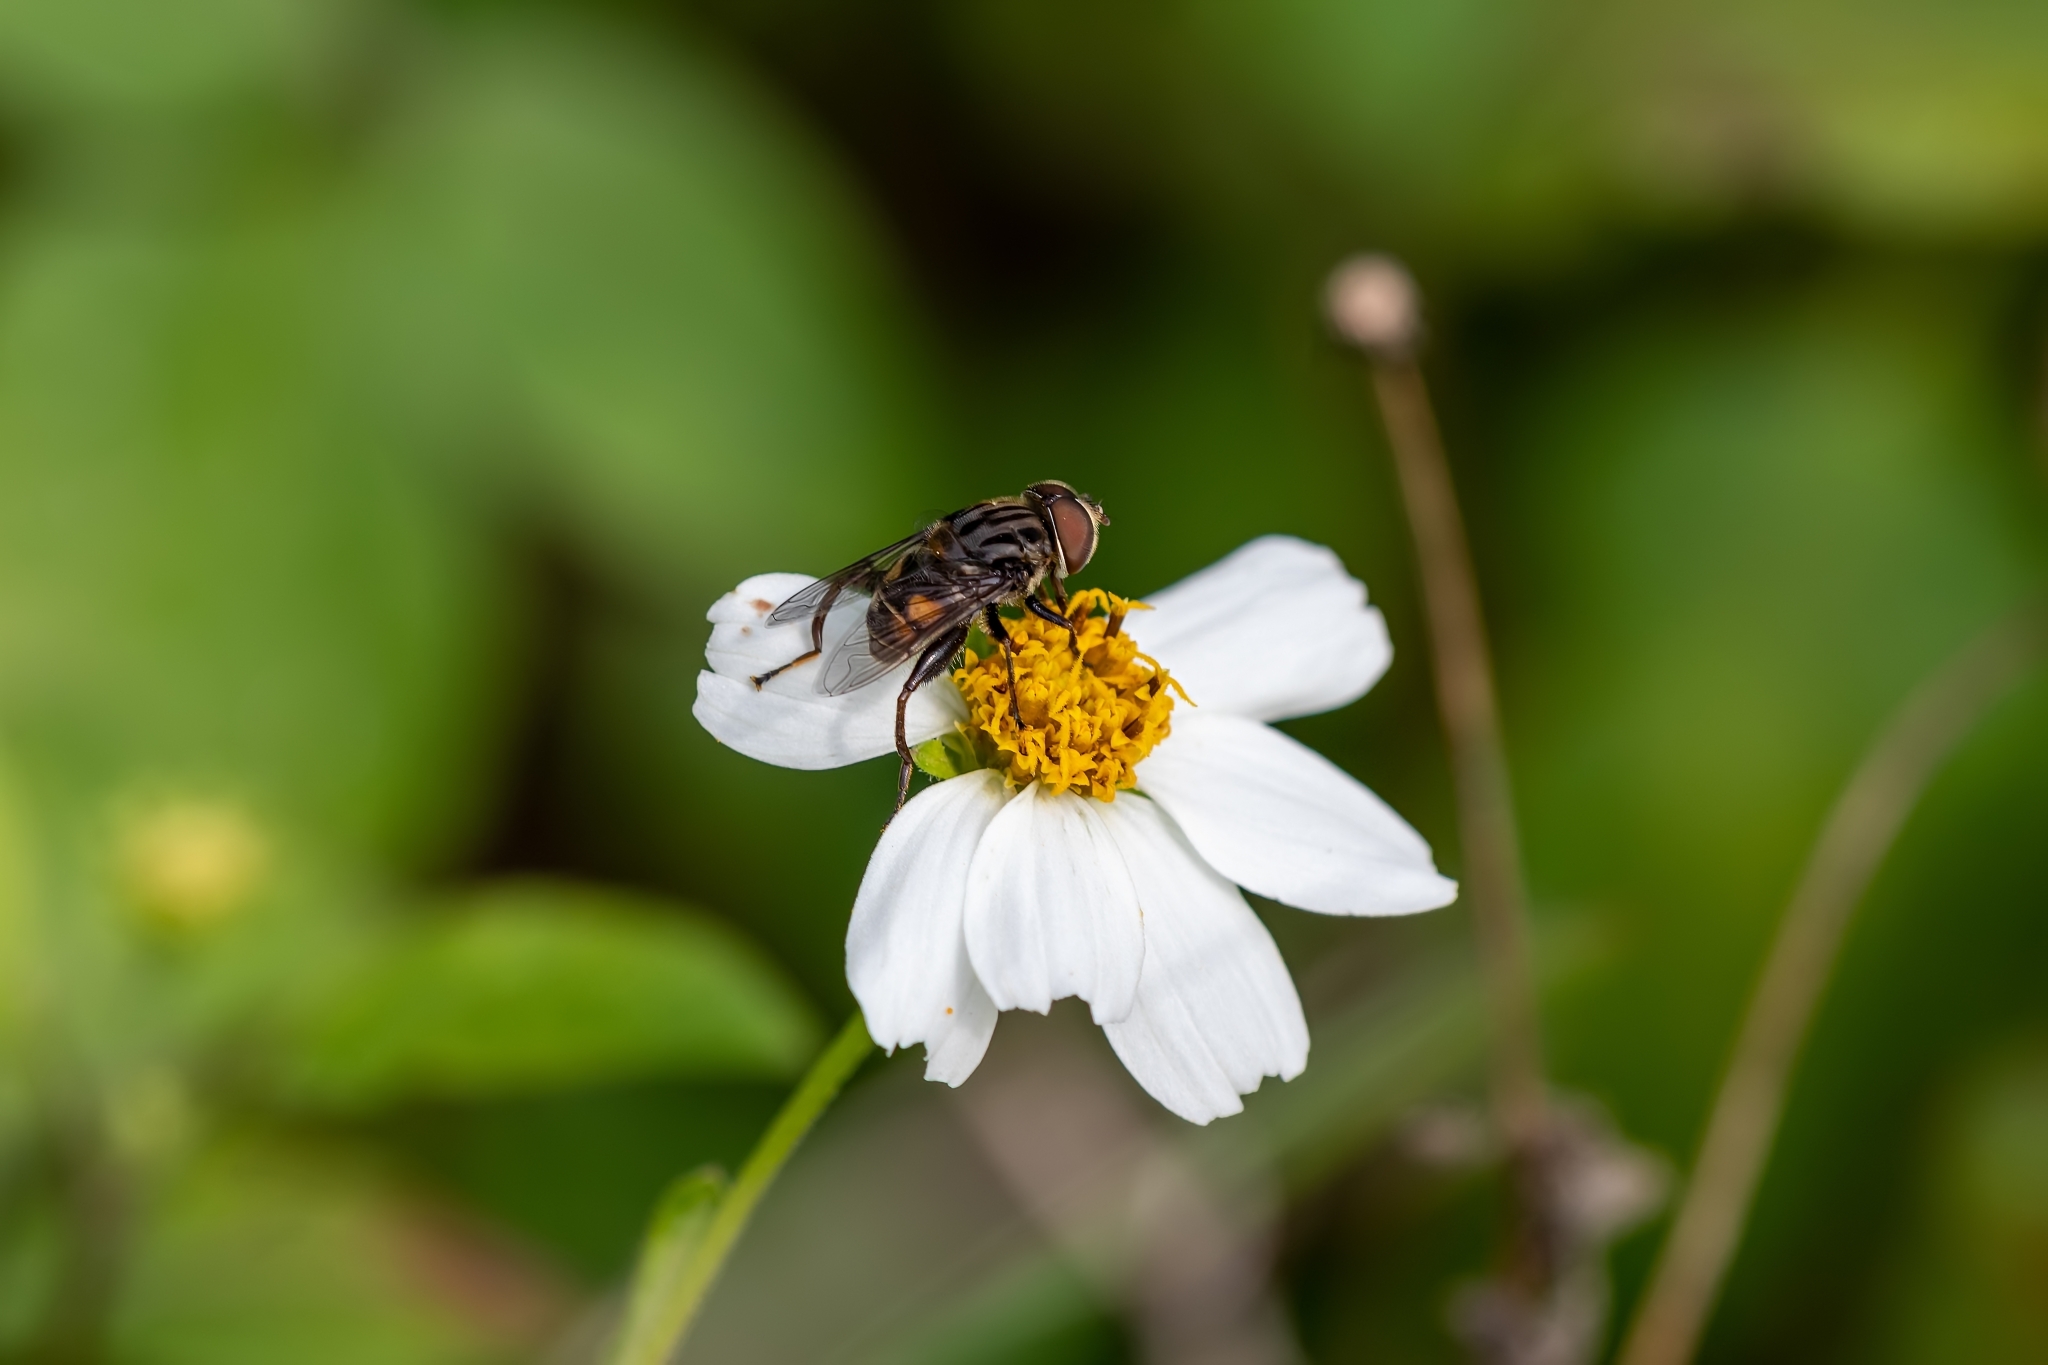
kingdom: Animalia
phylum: Arthropoda
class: Insecta
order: Diptera
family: Syrphidae
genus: Palpada
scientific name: Palpada furcata
